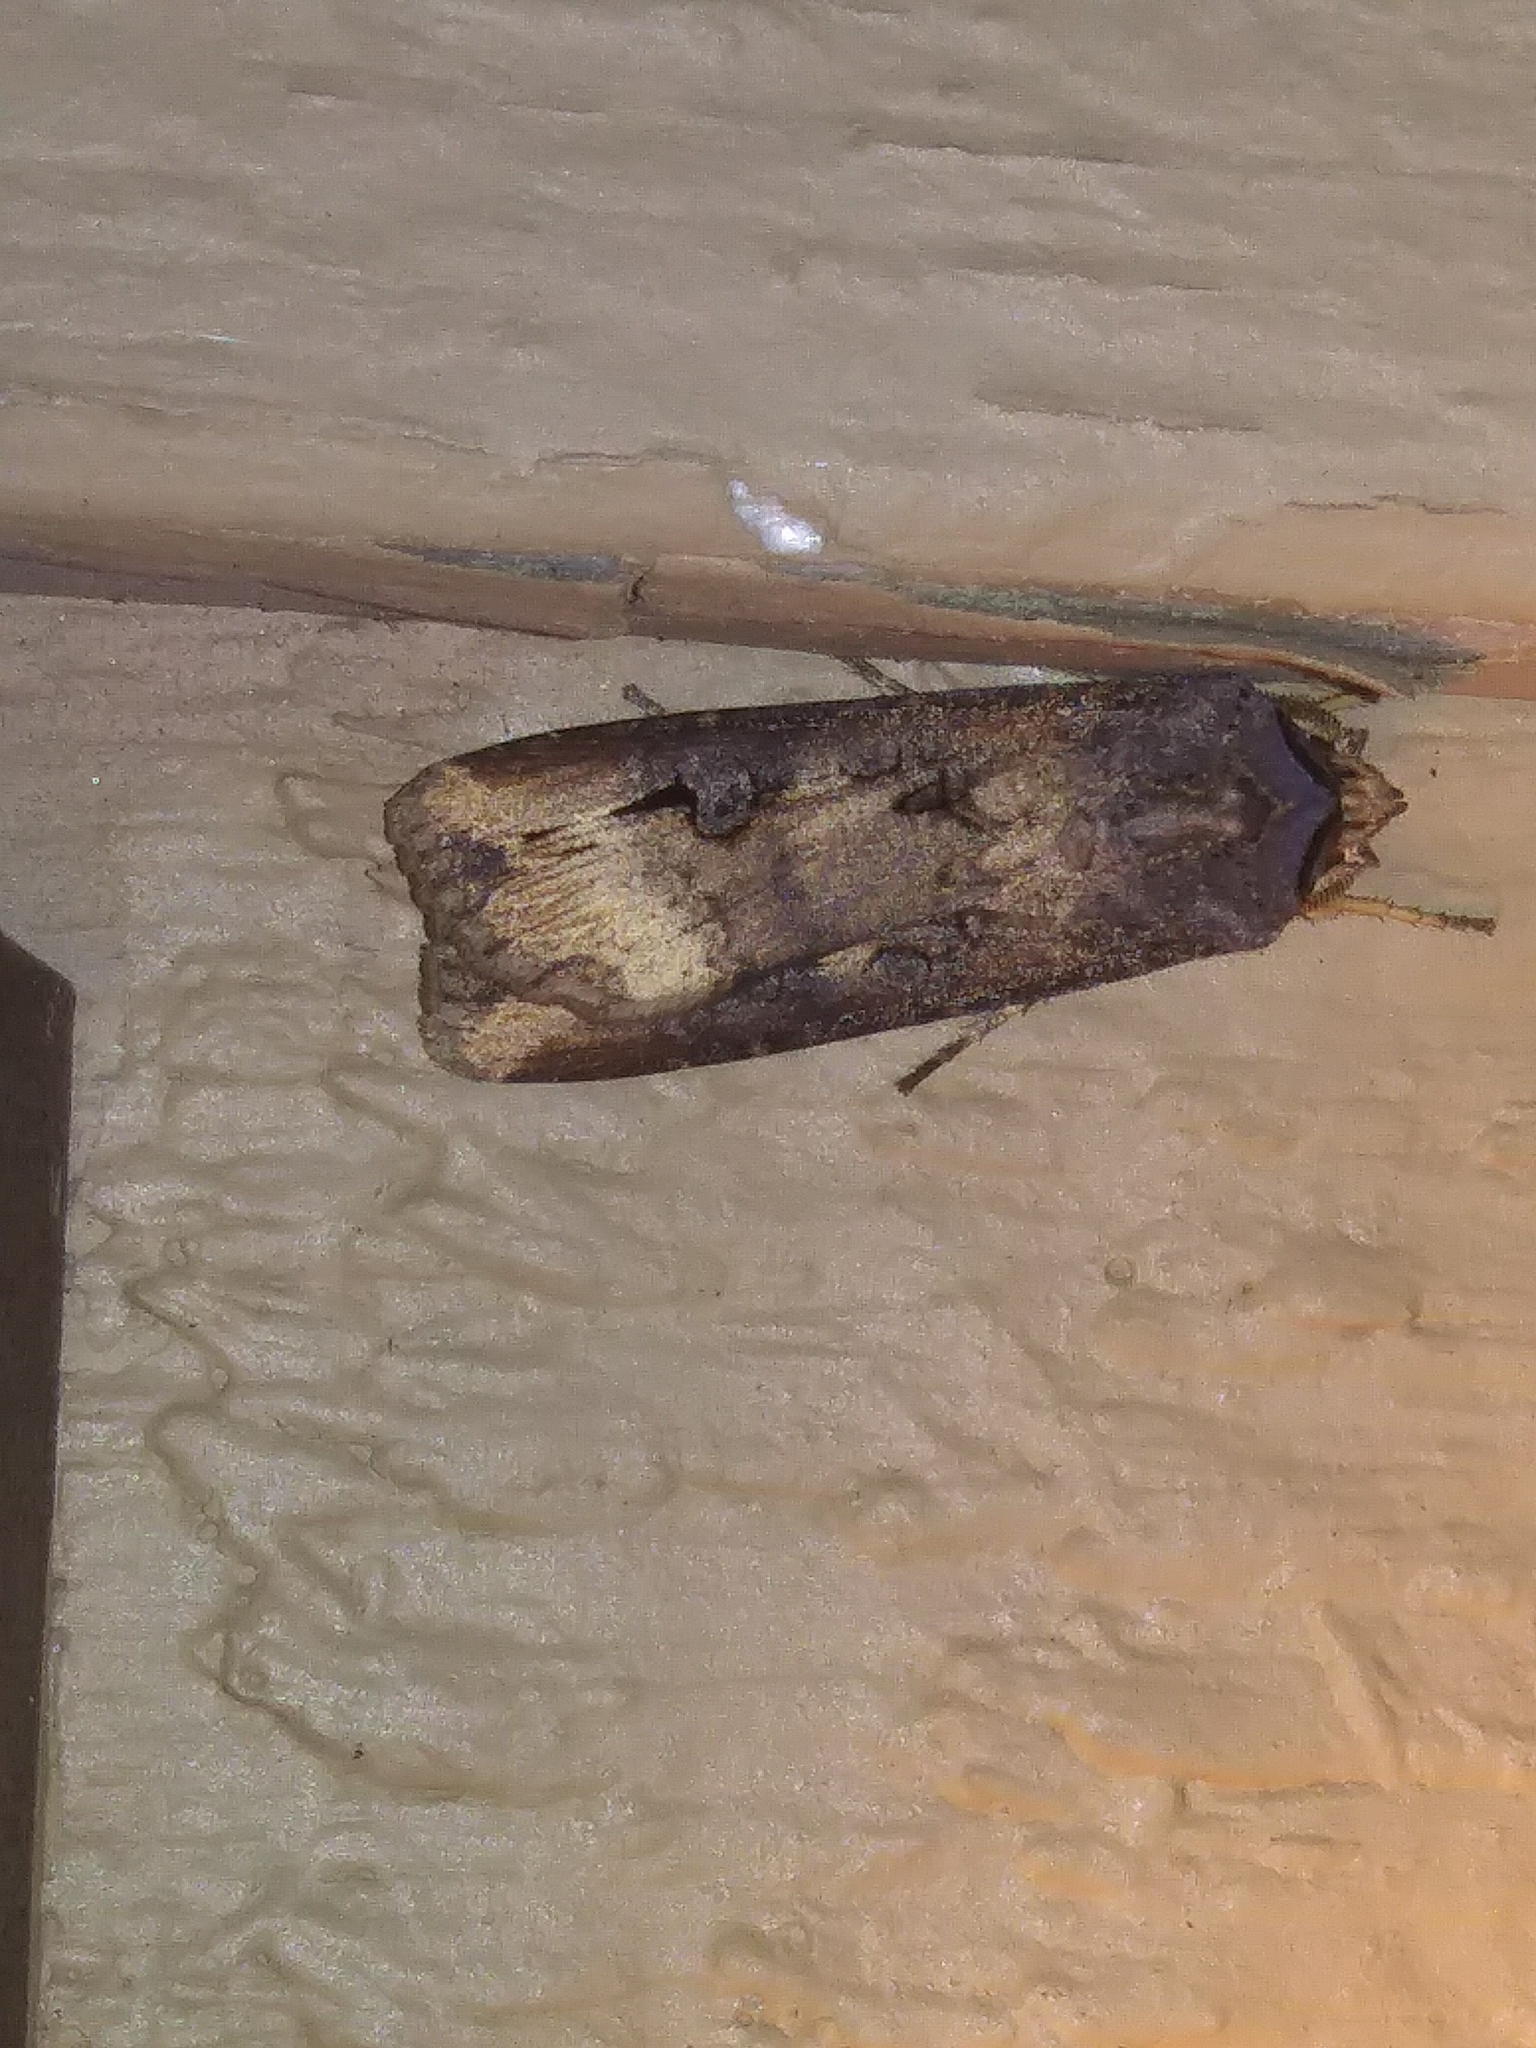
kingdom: Animalia
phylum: Arthropoda
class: Insecta
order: Lepidoptera
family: Noctuidae
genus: Agrotis
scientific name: Agrotis ipsilon
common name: Dark sword-grass
